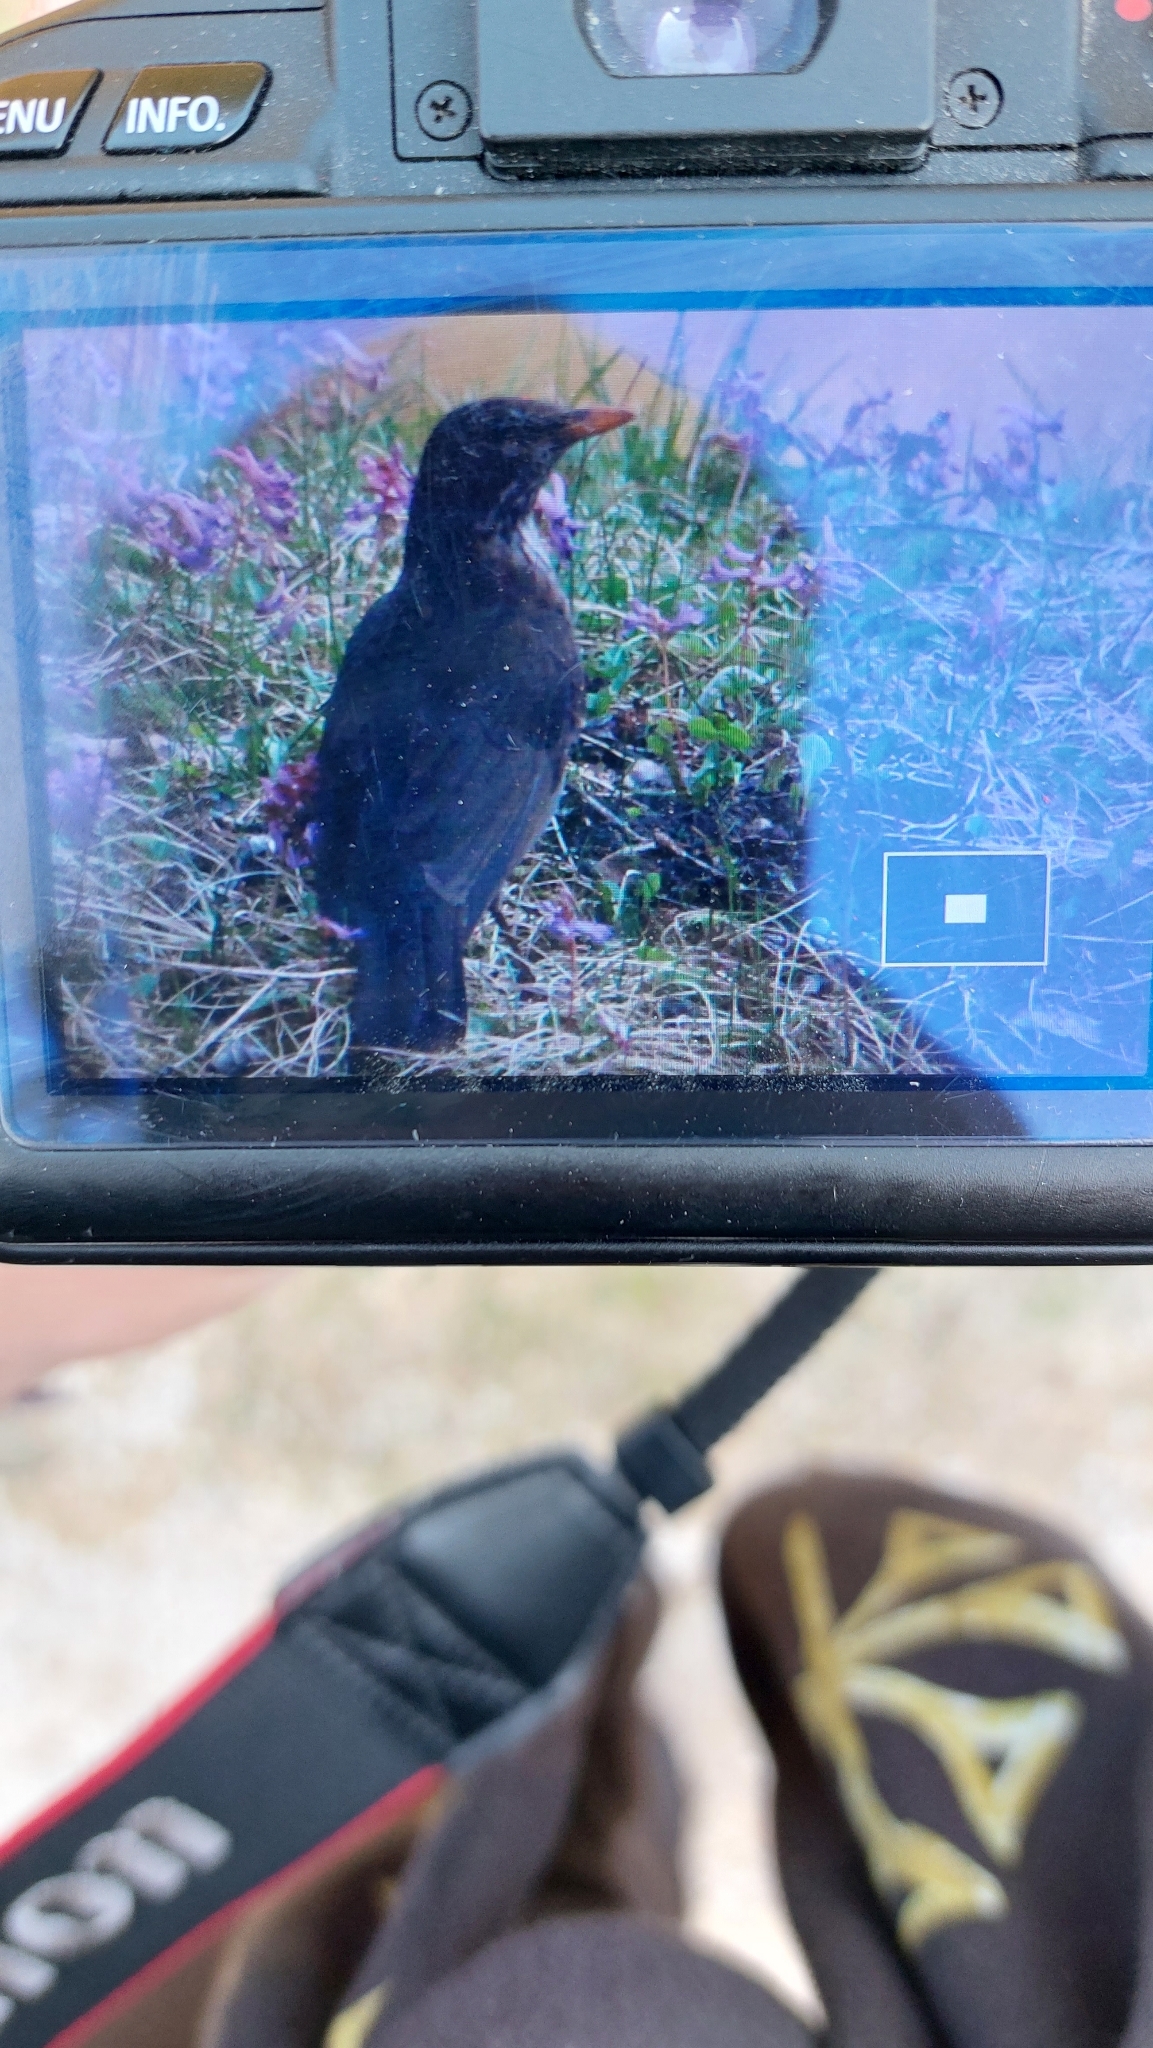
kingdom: Animalia
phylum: Chordata
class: Aves
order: Passeriformes
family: Turdidae
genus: Turdus
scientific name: Turdus merula
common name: Common blackbird
